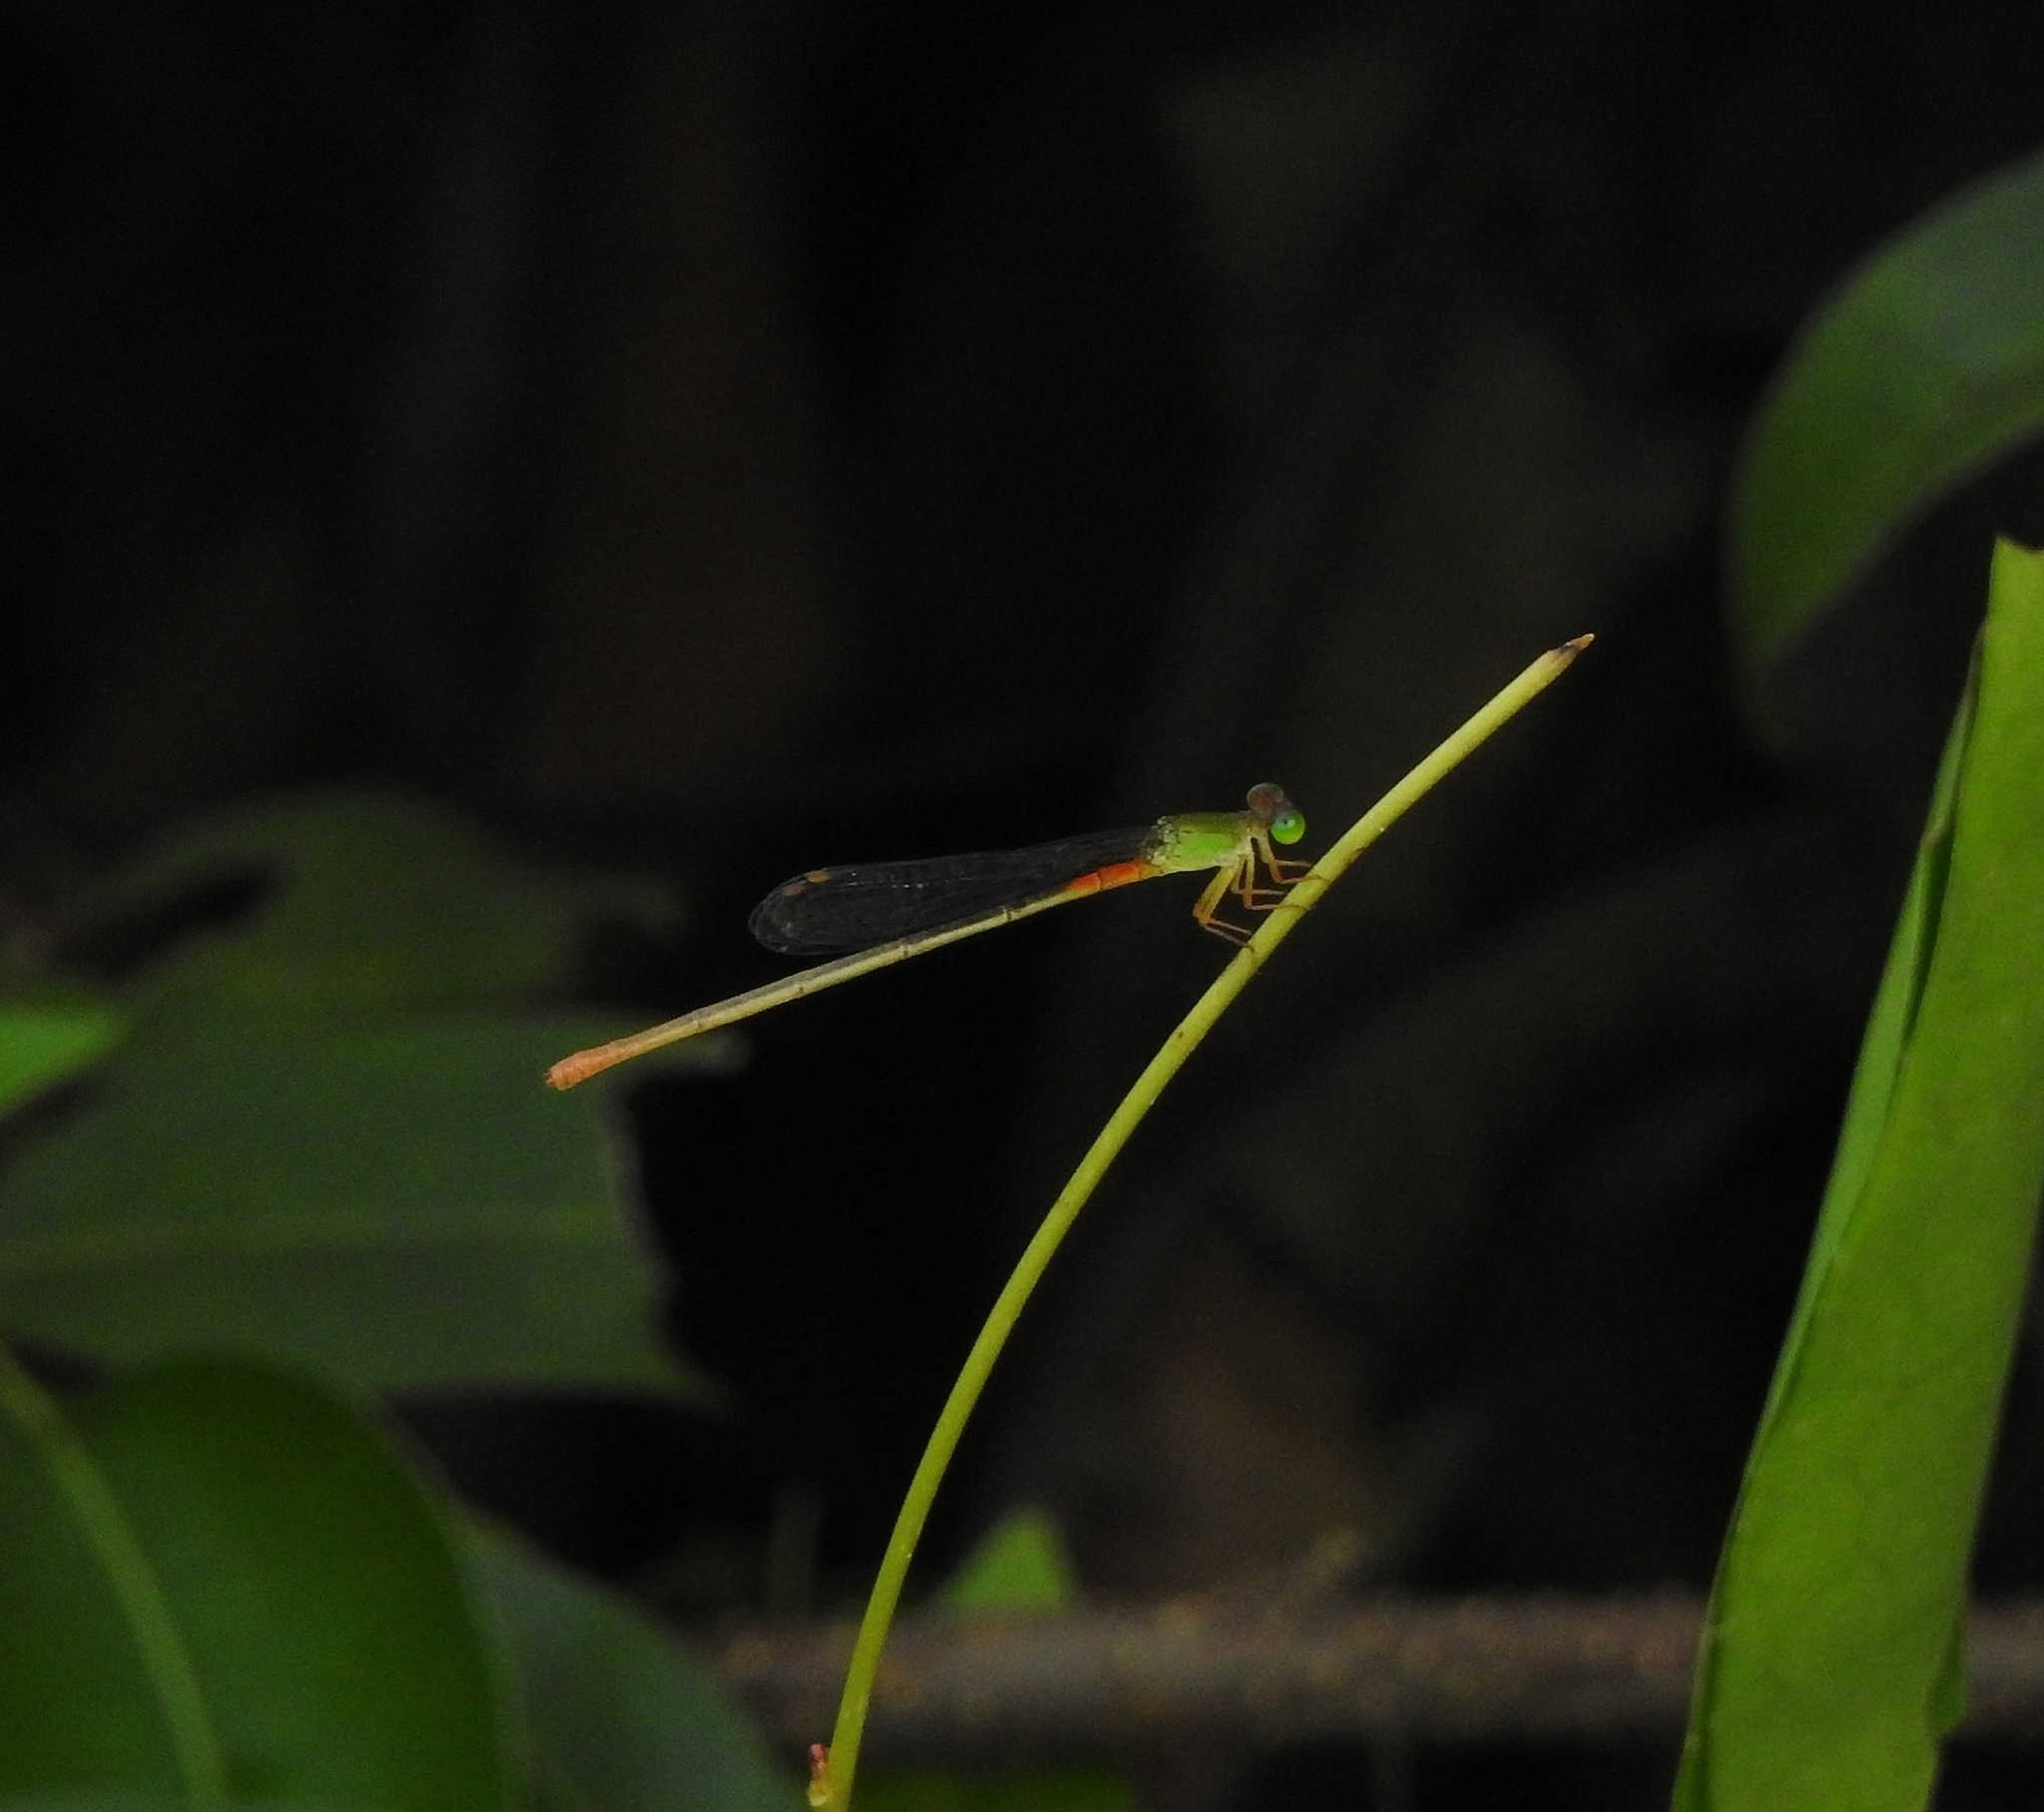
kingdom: Animalia
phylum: Arthropoda
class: Insecta
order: Odonata
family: Coenagrionidae
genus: Ceriagrion
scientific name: Ceriagrion cerinorubellum
